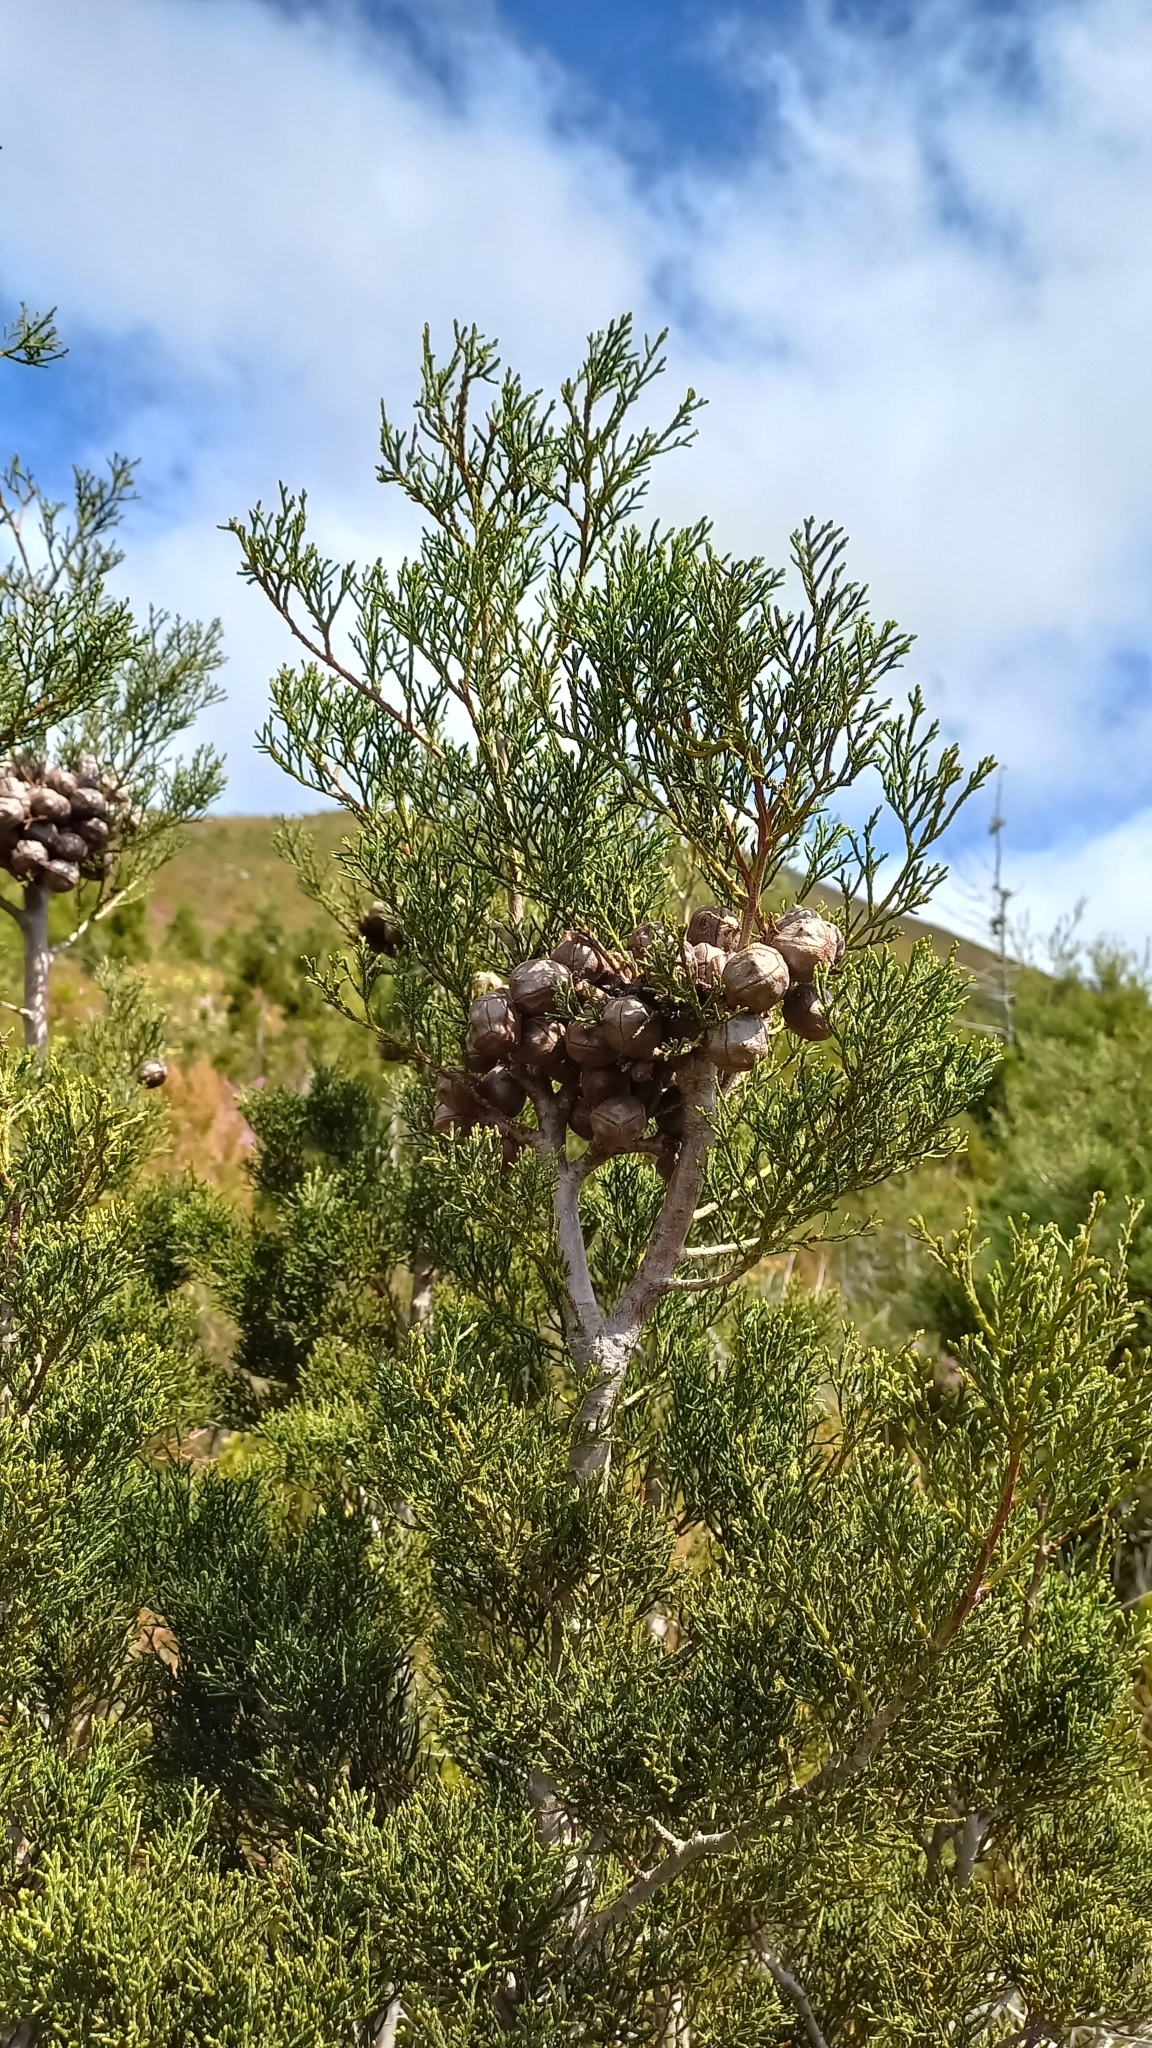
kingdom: Plantae
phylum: Tracheophyta
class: Pinopsida
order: Pinales
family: Cupressaceae
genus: Widdringtonia
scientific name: Widdringtonia nodiflora
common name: Cape cypress
